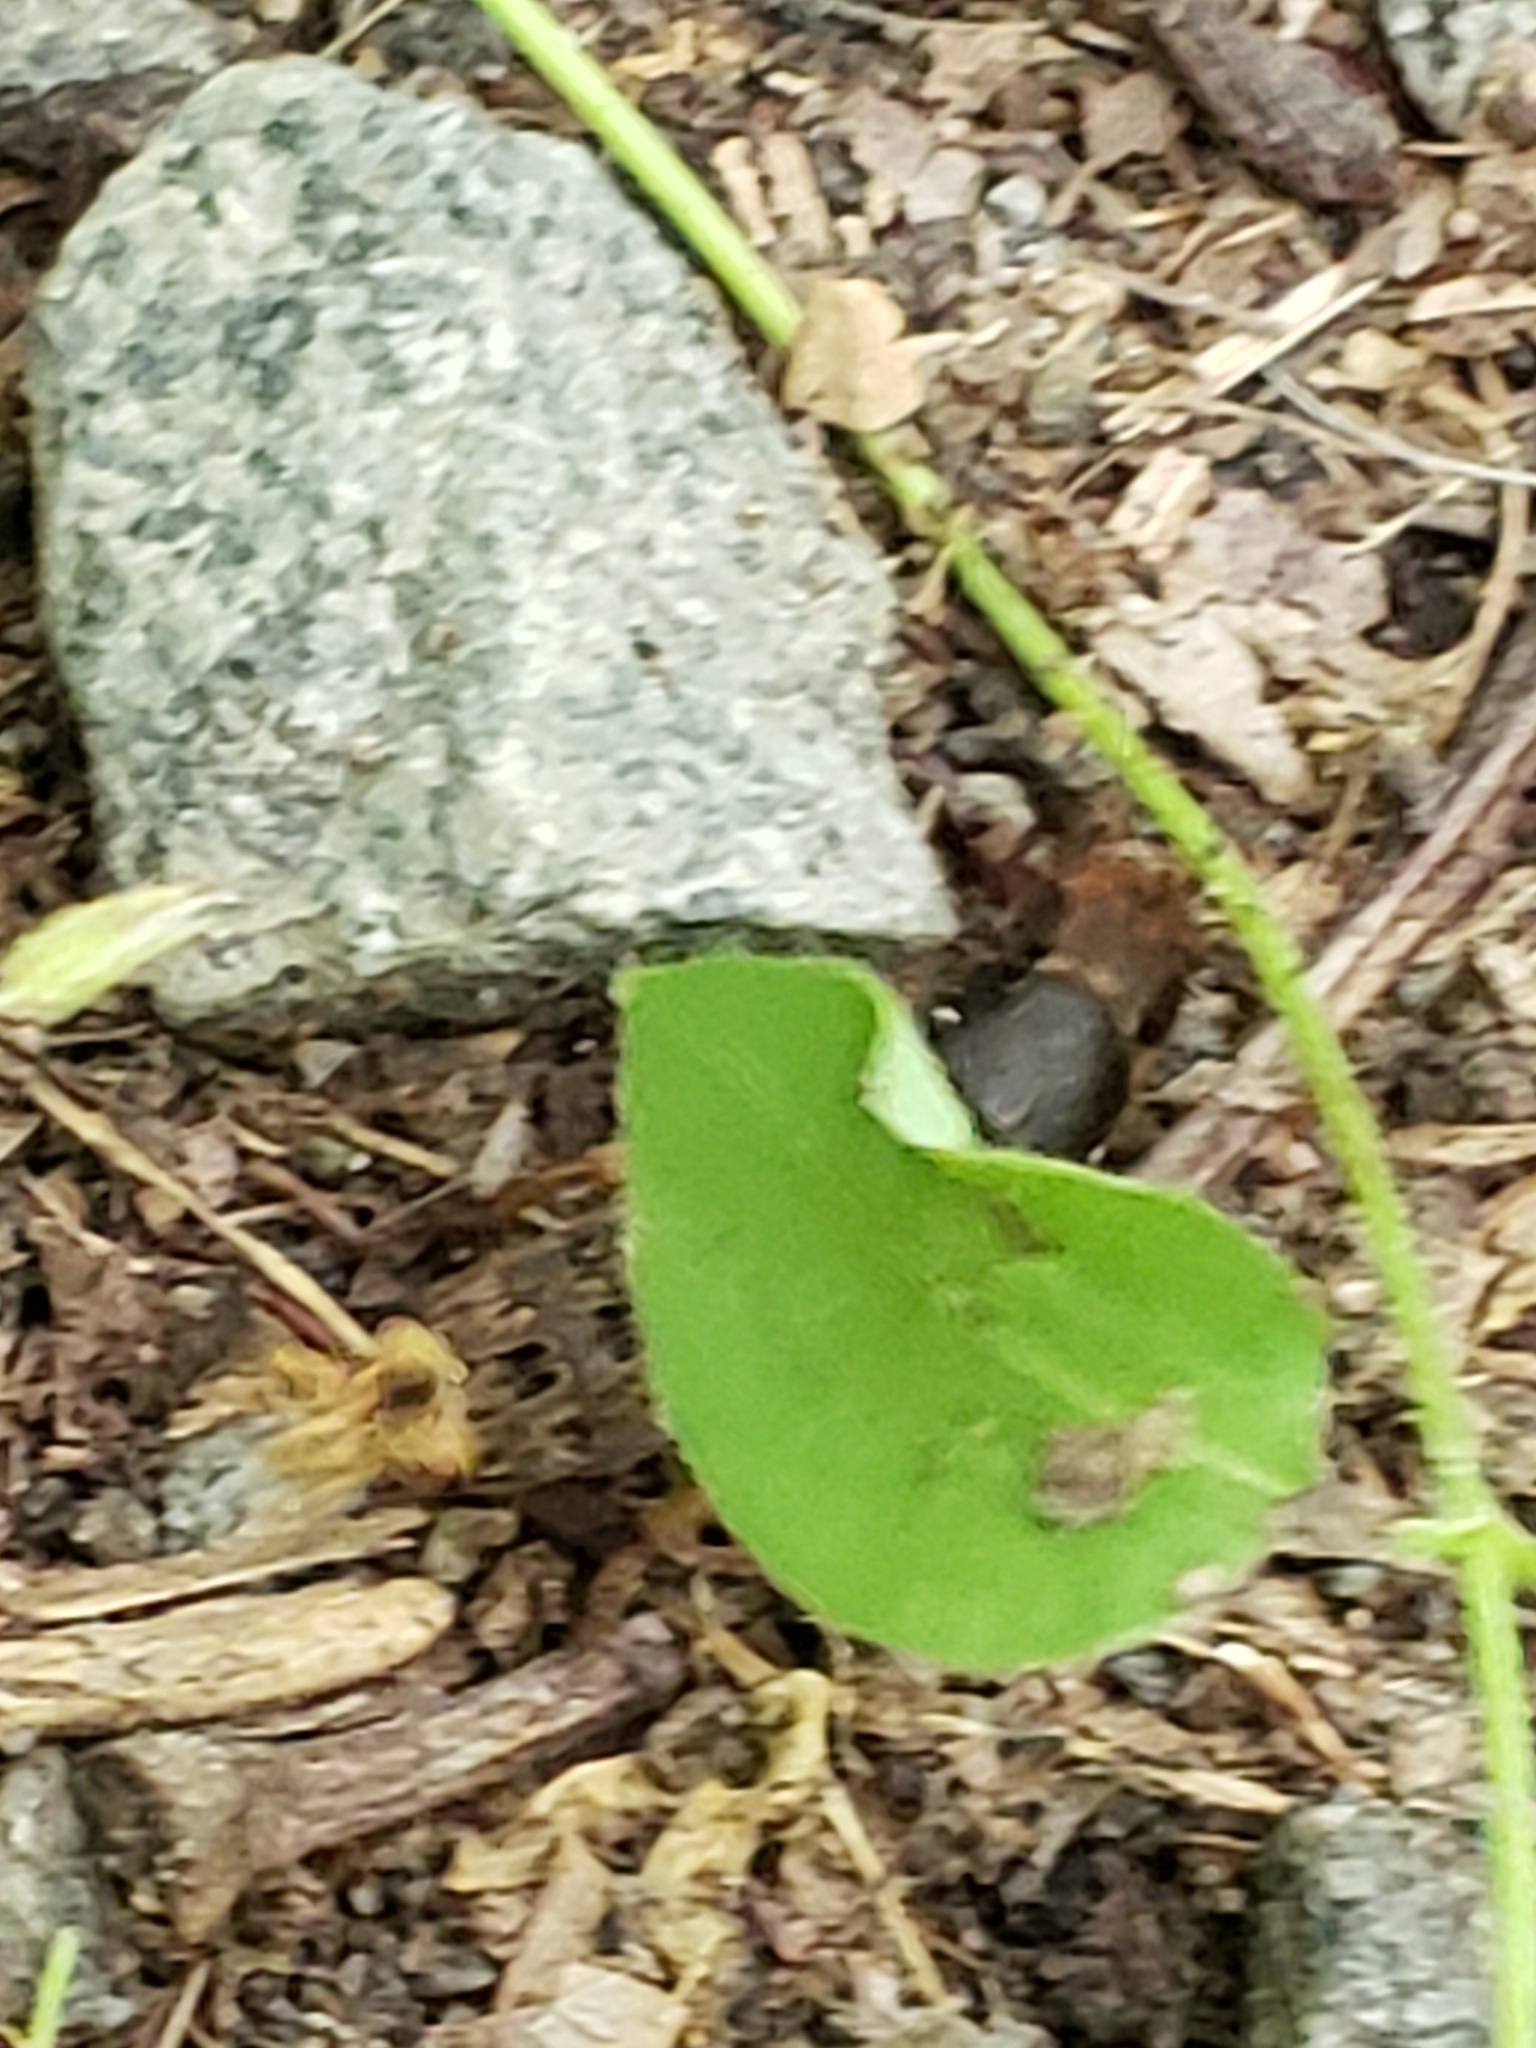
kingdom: Animalia
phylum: Arthropoda
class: Insecta
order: Coleoptera
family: Staphylinidae
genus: Platydracus
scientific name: Platydracus maculosus
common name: Brown rove beetle
